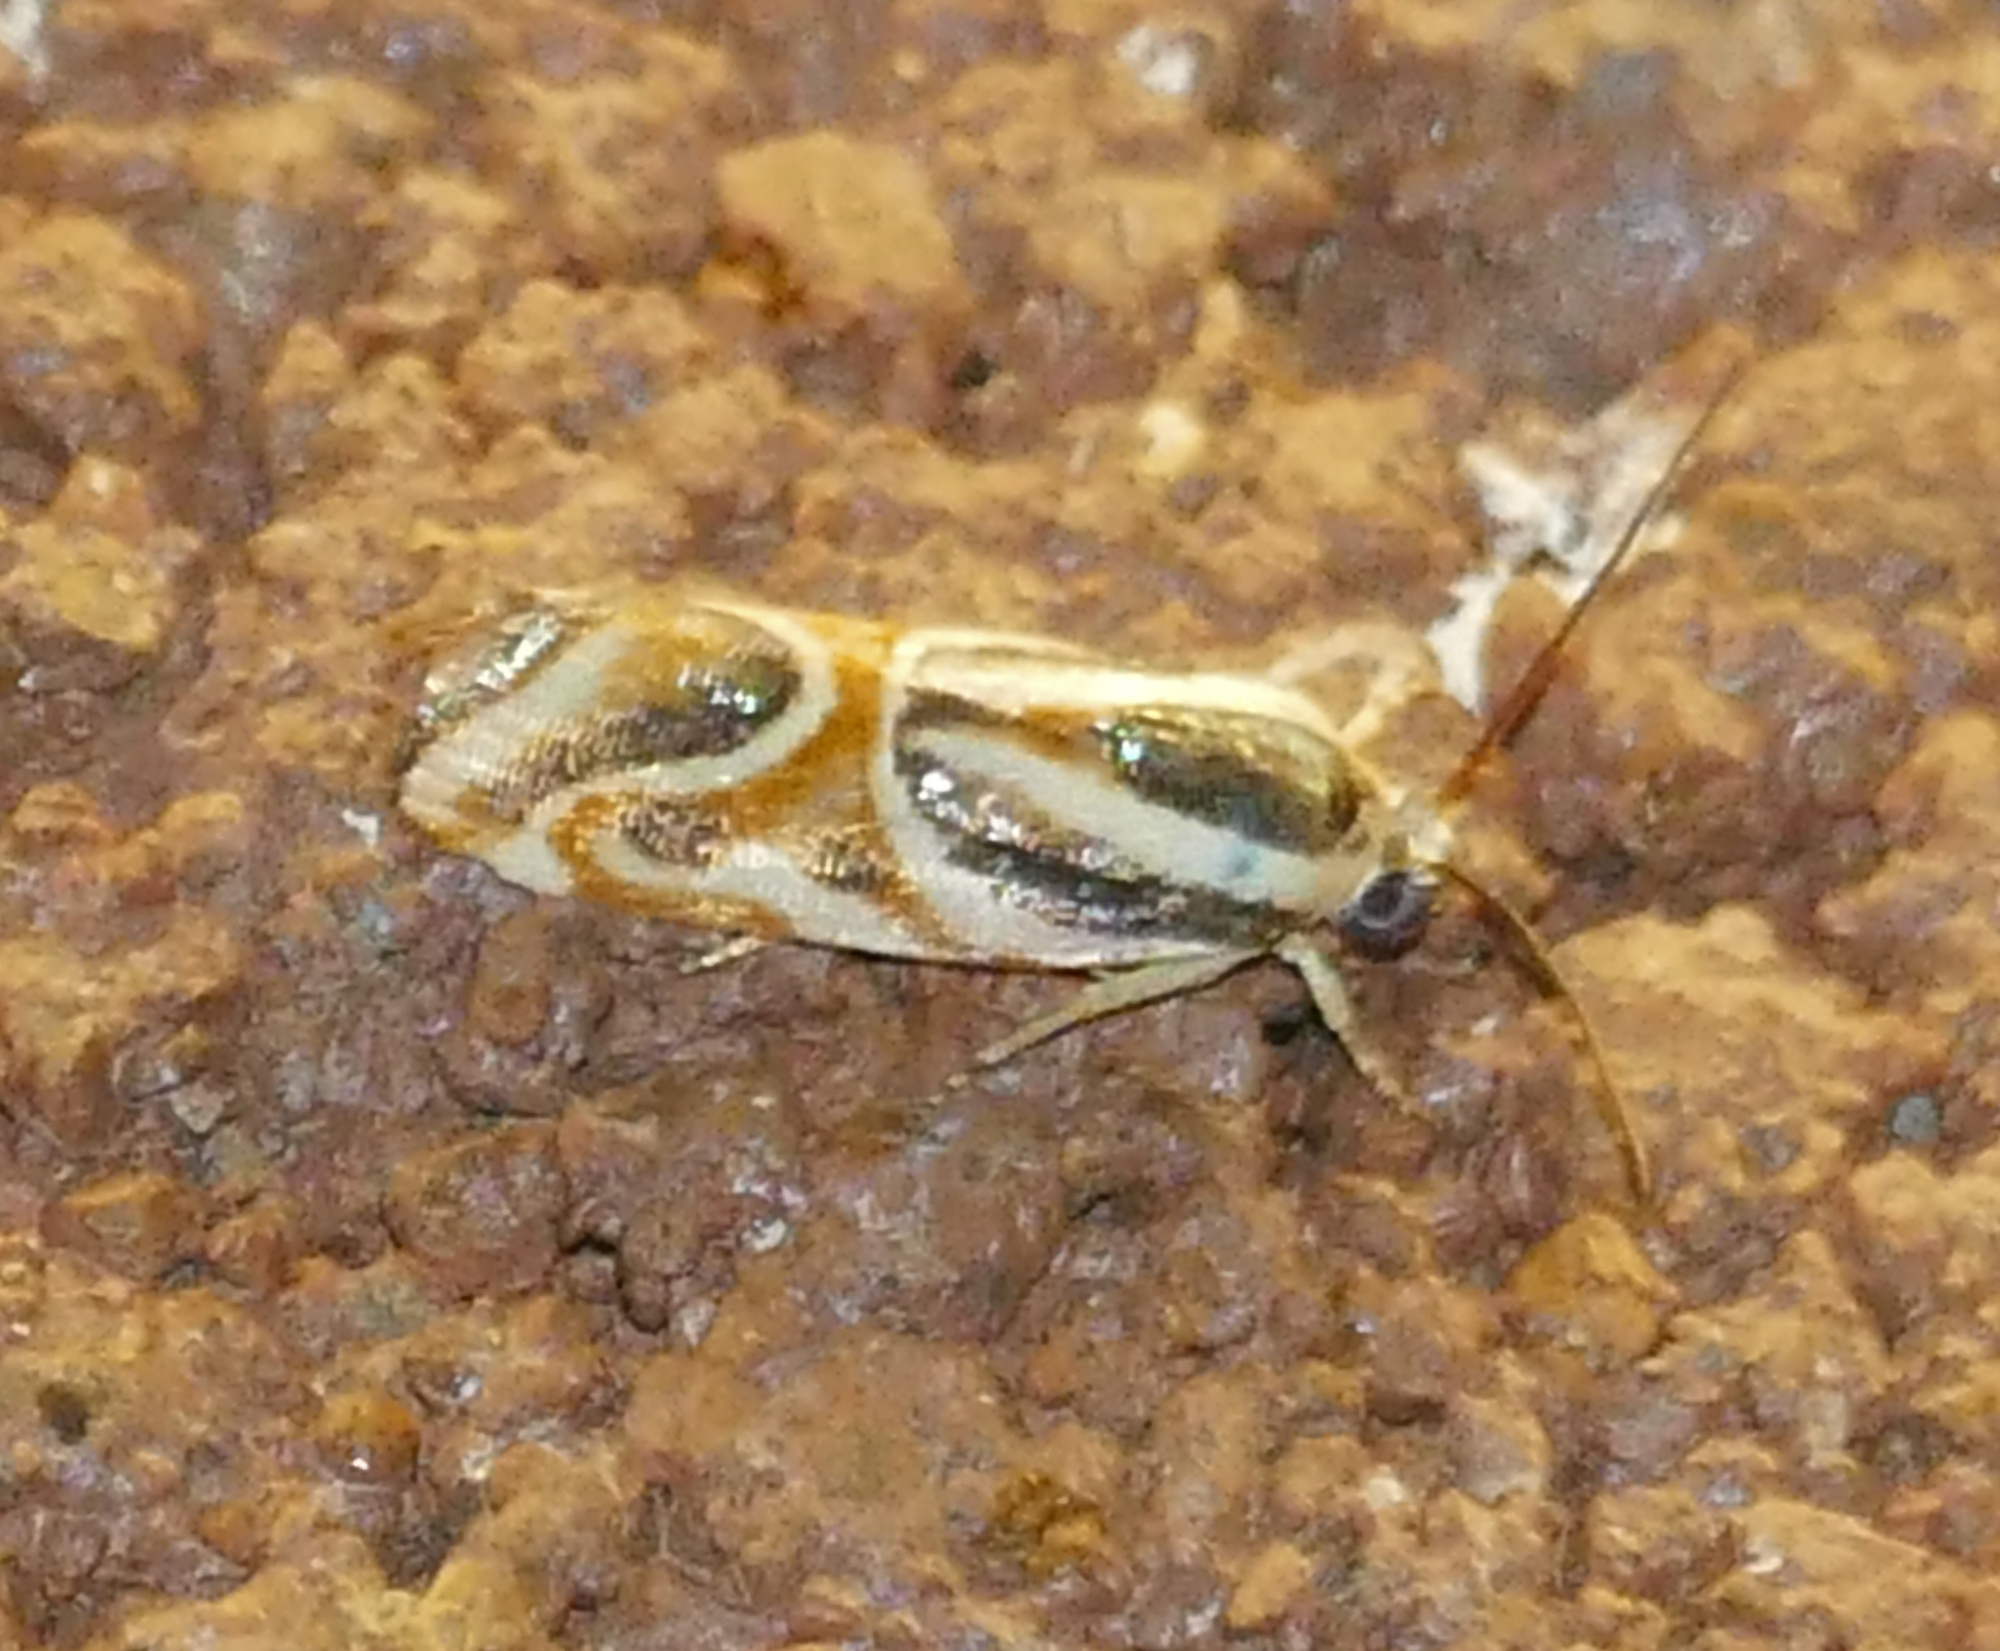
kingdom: Animalia
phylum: Arthropoda
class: Insecta
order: Lepidoptera
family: Noctuidae
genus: Spragueia
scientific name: Spragueia magnifica
